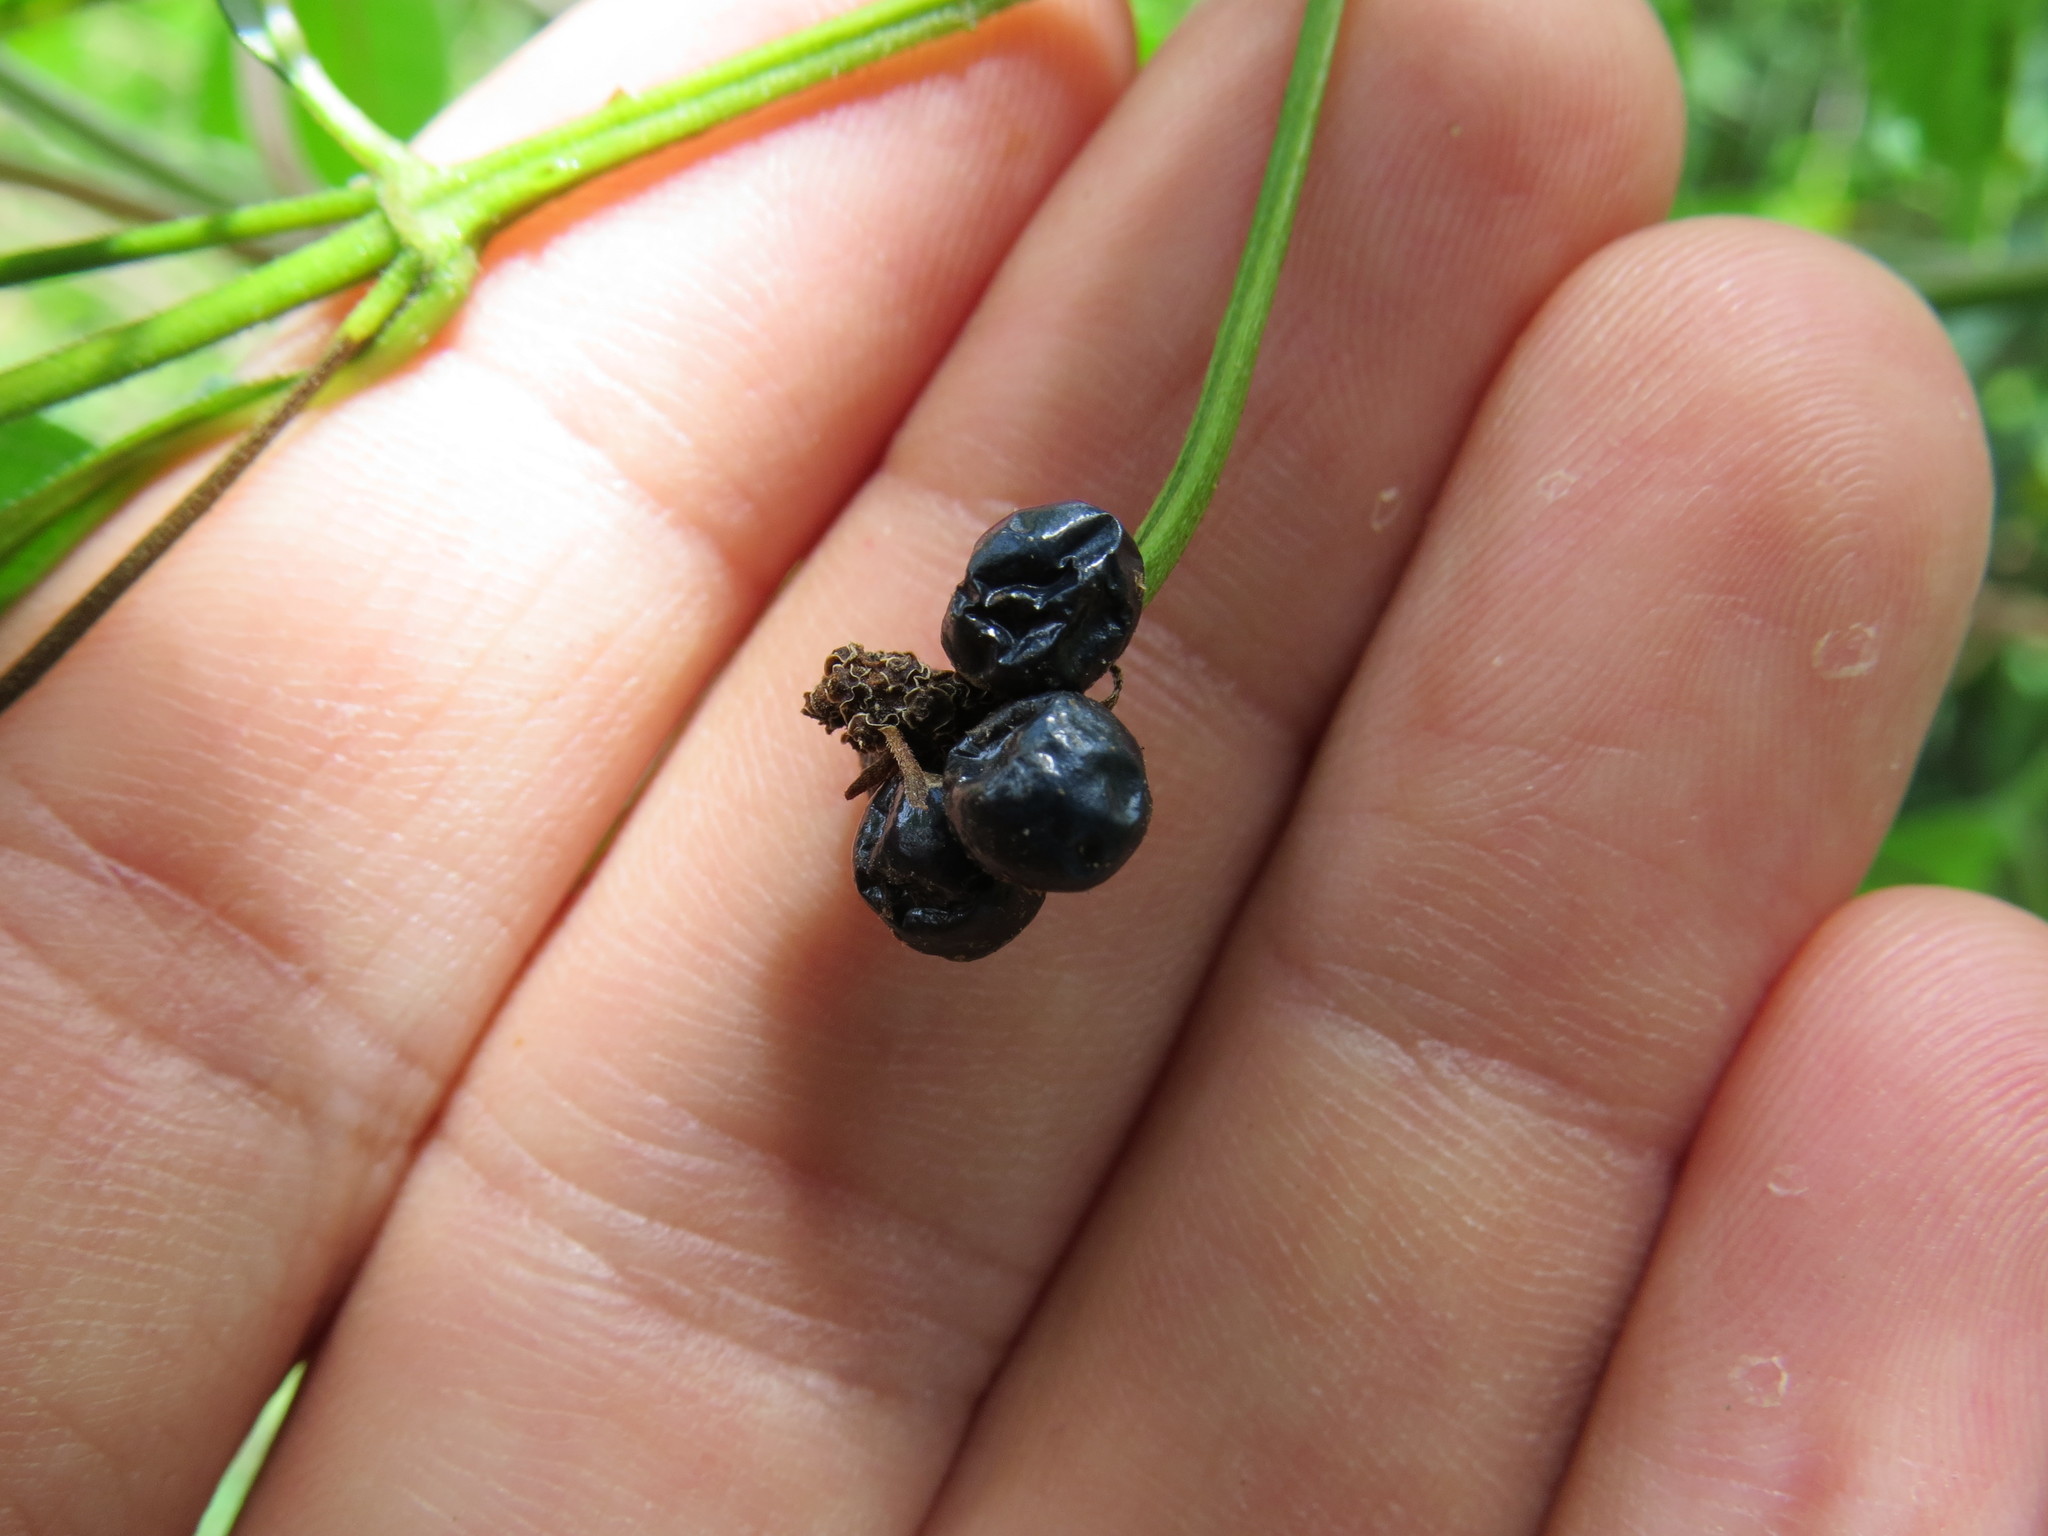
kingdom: Plantae
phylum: Tracheophyta
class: Magnoliopsida
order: Lamiales
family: Verbenaceae
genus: Lantana
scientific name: Lantana camara
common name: Lantana
